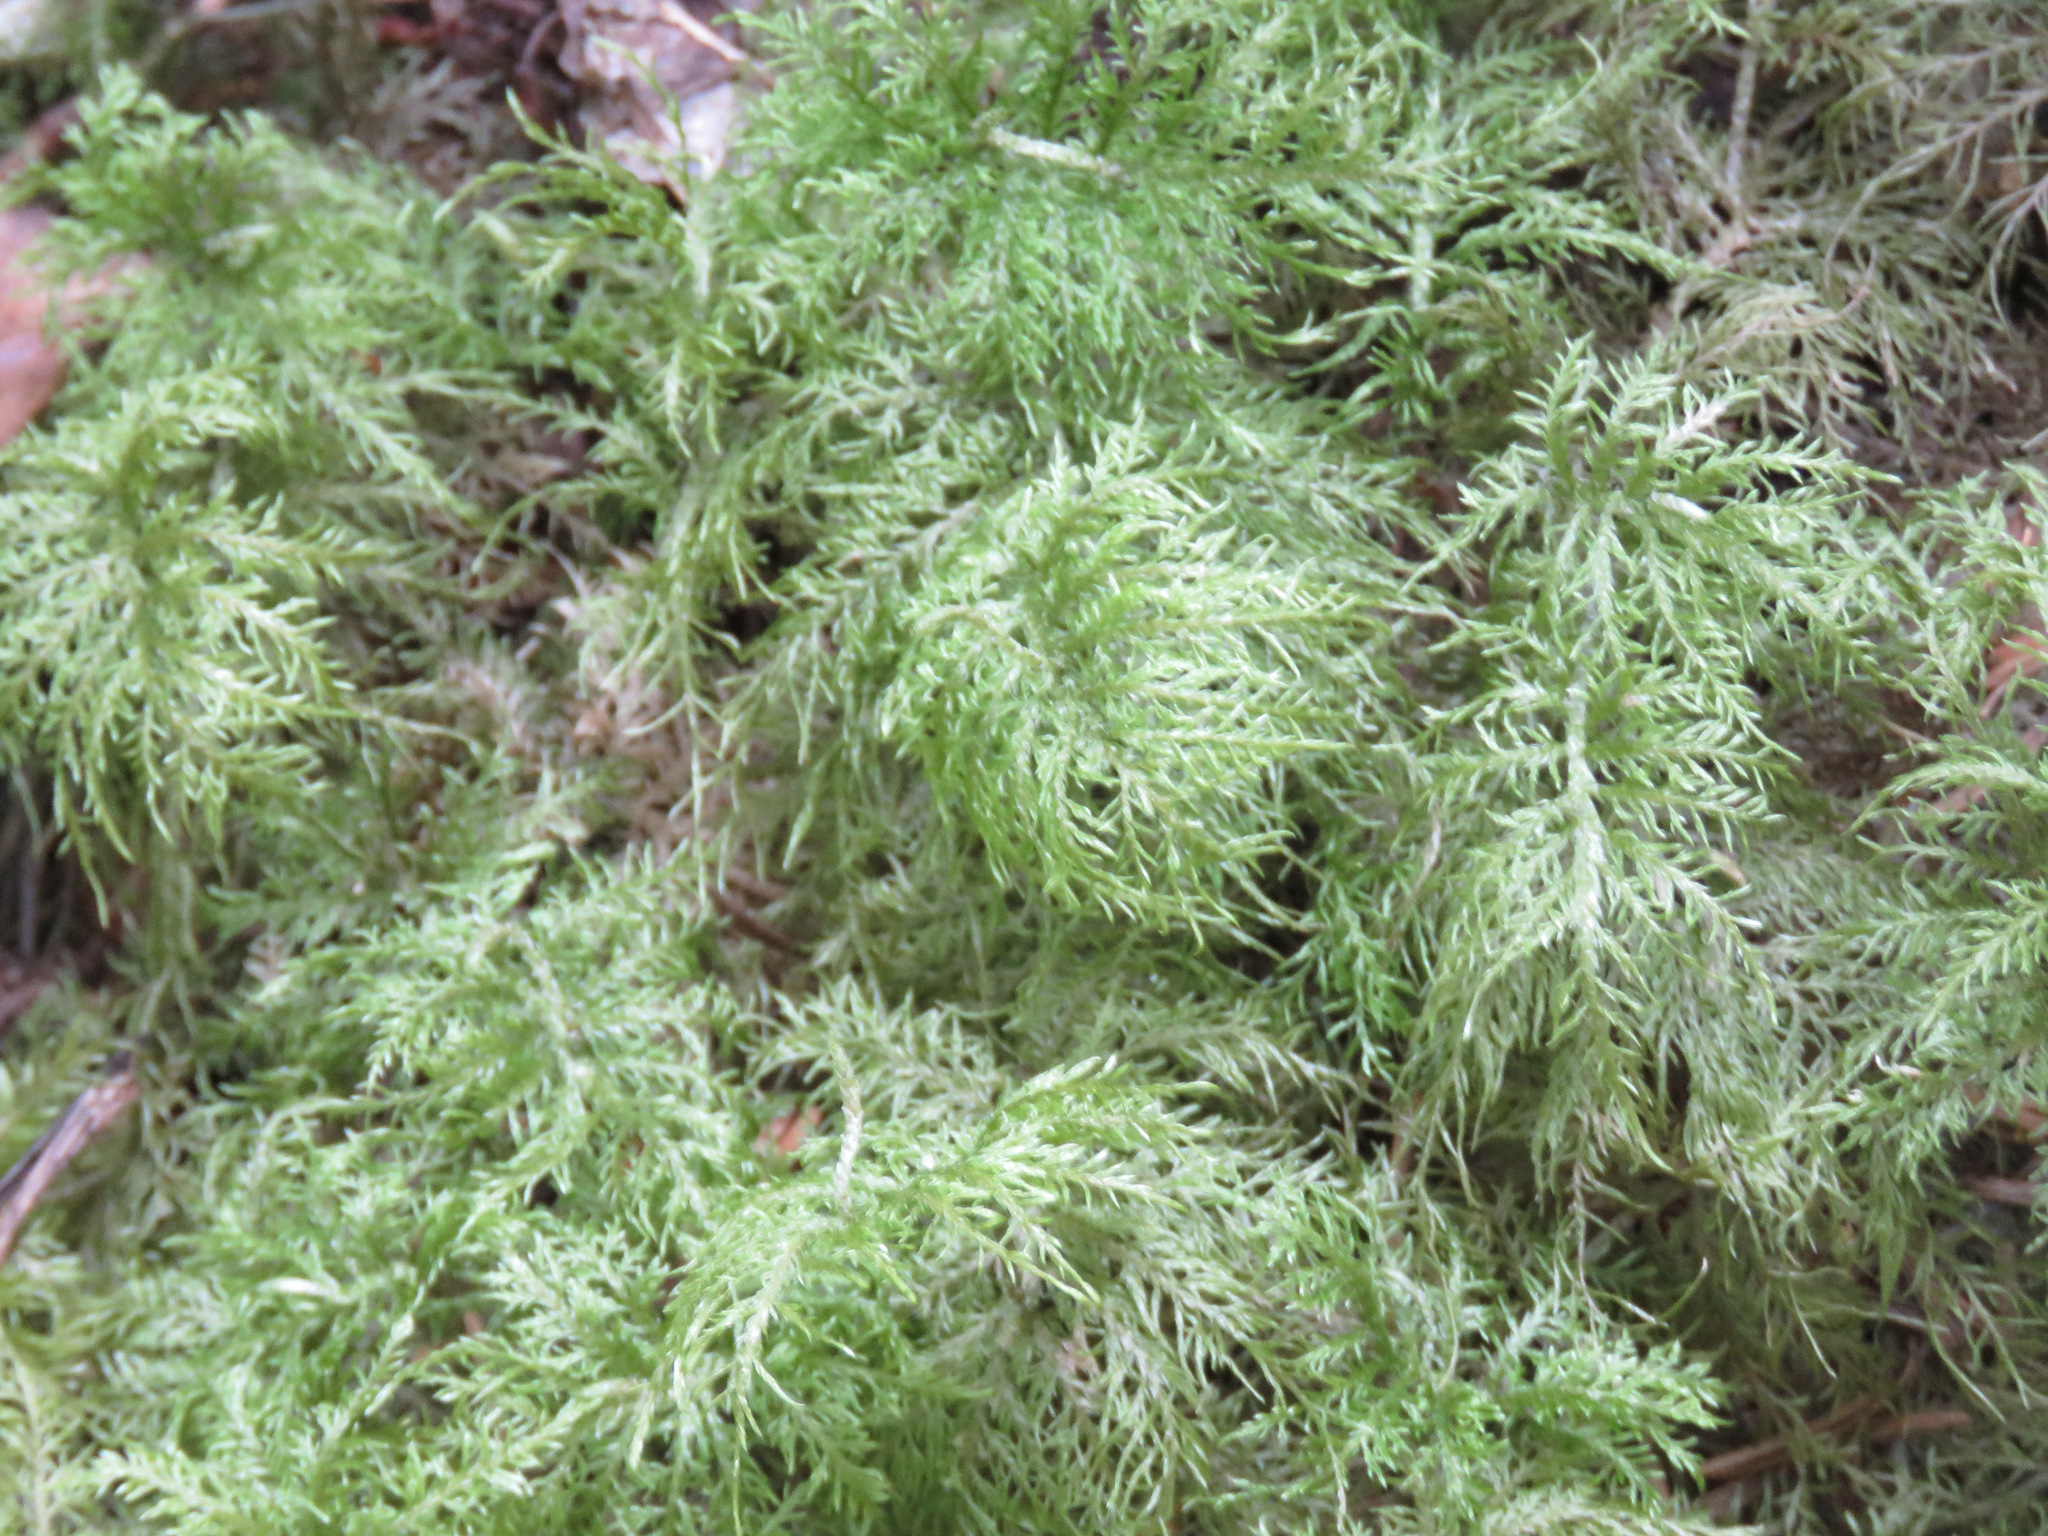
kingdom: Plantae
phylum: Bryophyta
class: Bryopsida
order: Hypnales
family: Hylocomiaceae
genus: Hylocomium
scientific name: Hylocomium splendens
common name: Stairstep moss
